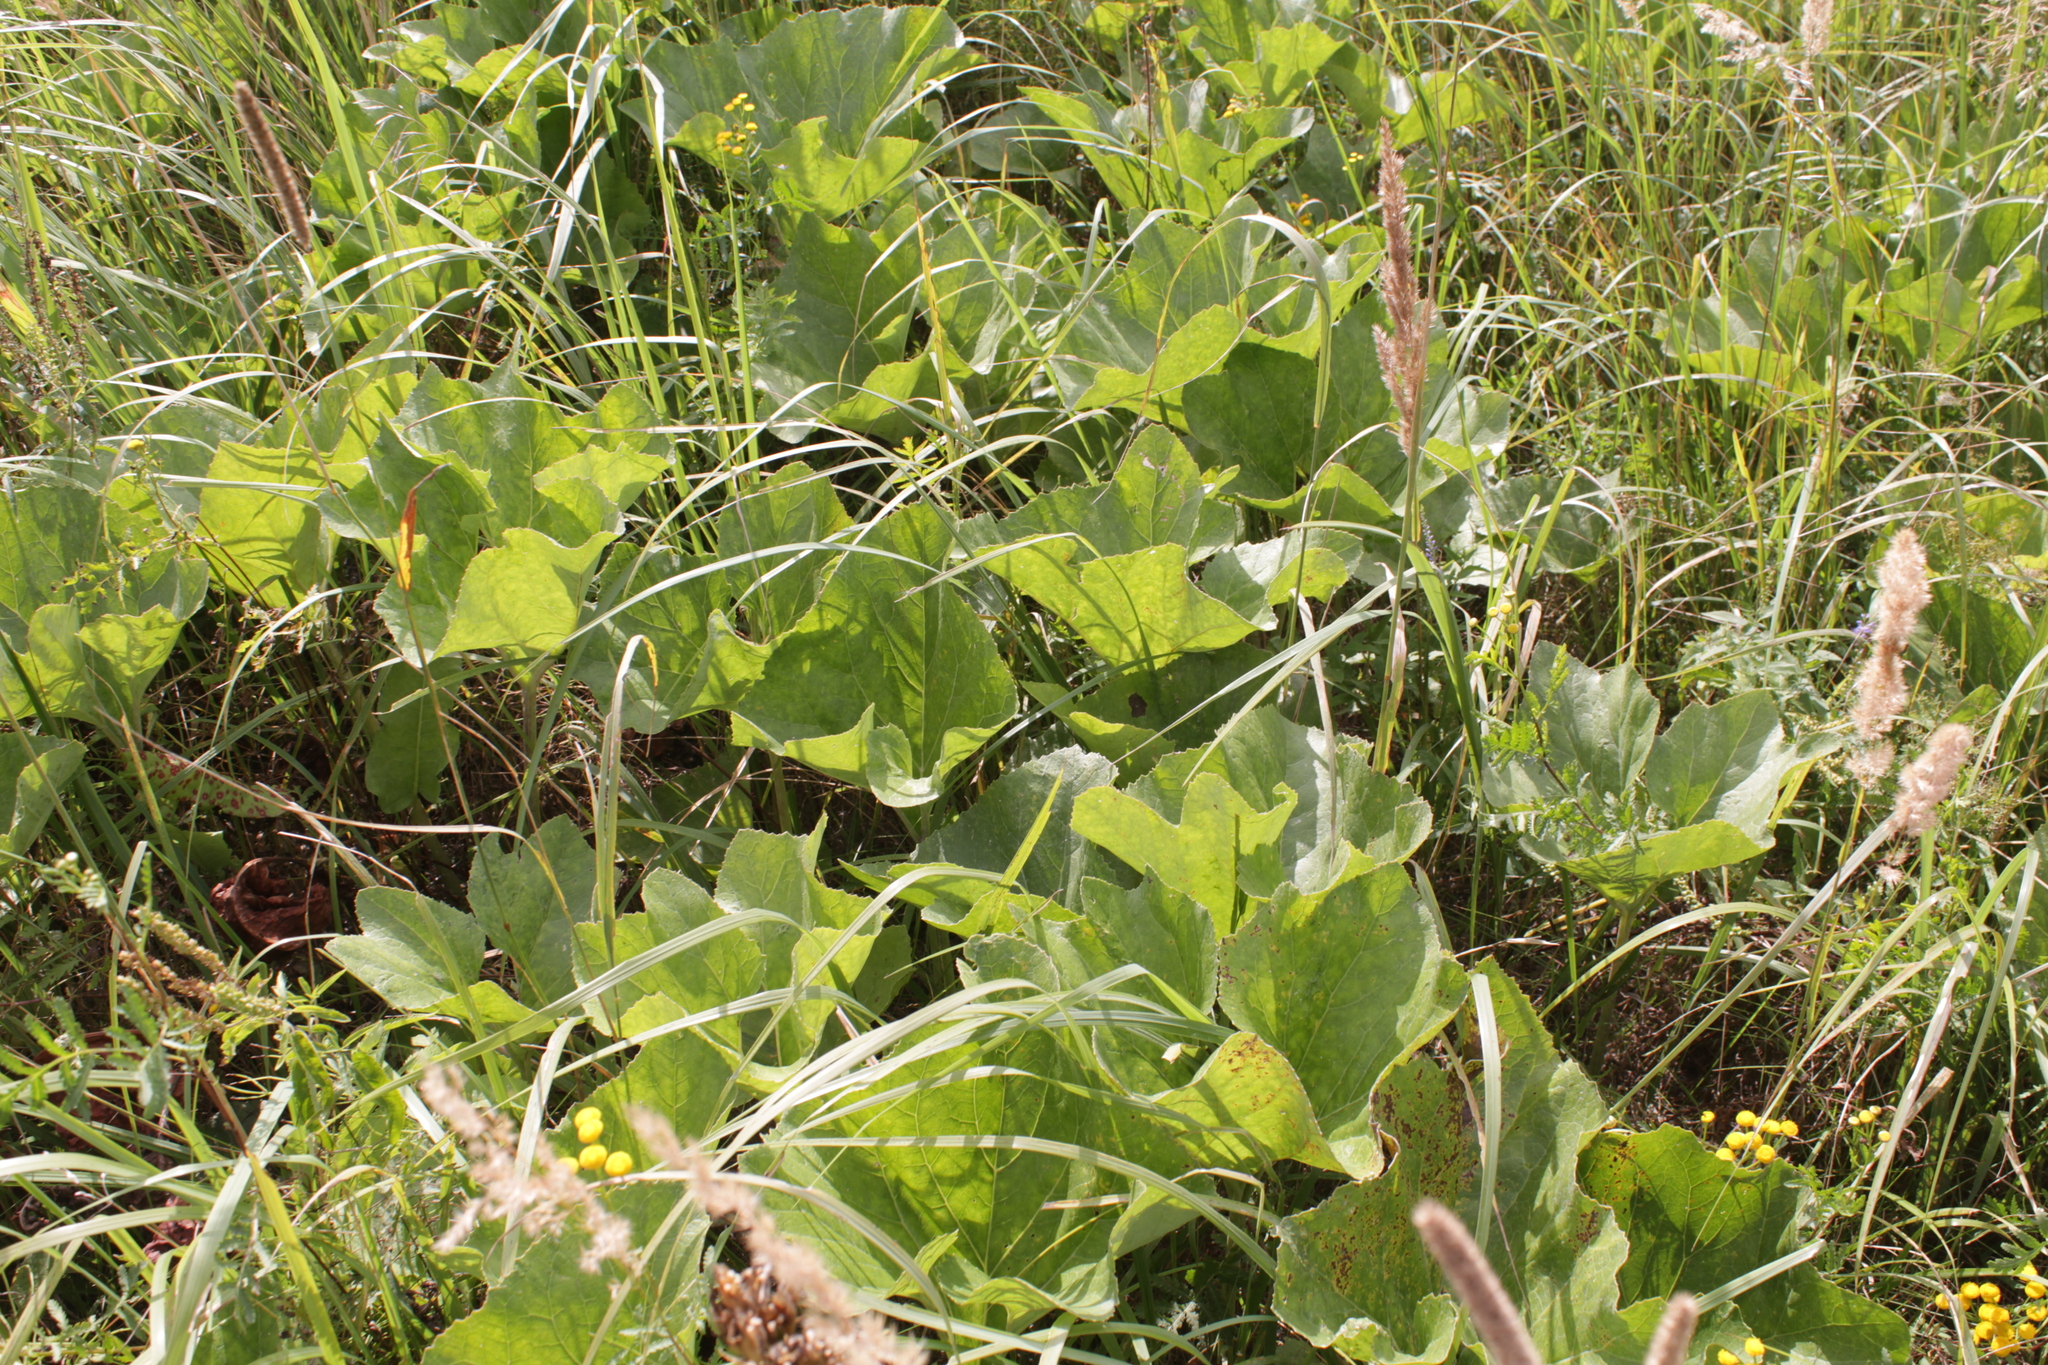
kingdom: Plantae
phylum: Tracheophyta
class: Magnoliopsida
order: Asterales
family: Asteraceae
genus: Petasites
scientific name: Petasites spurius
